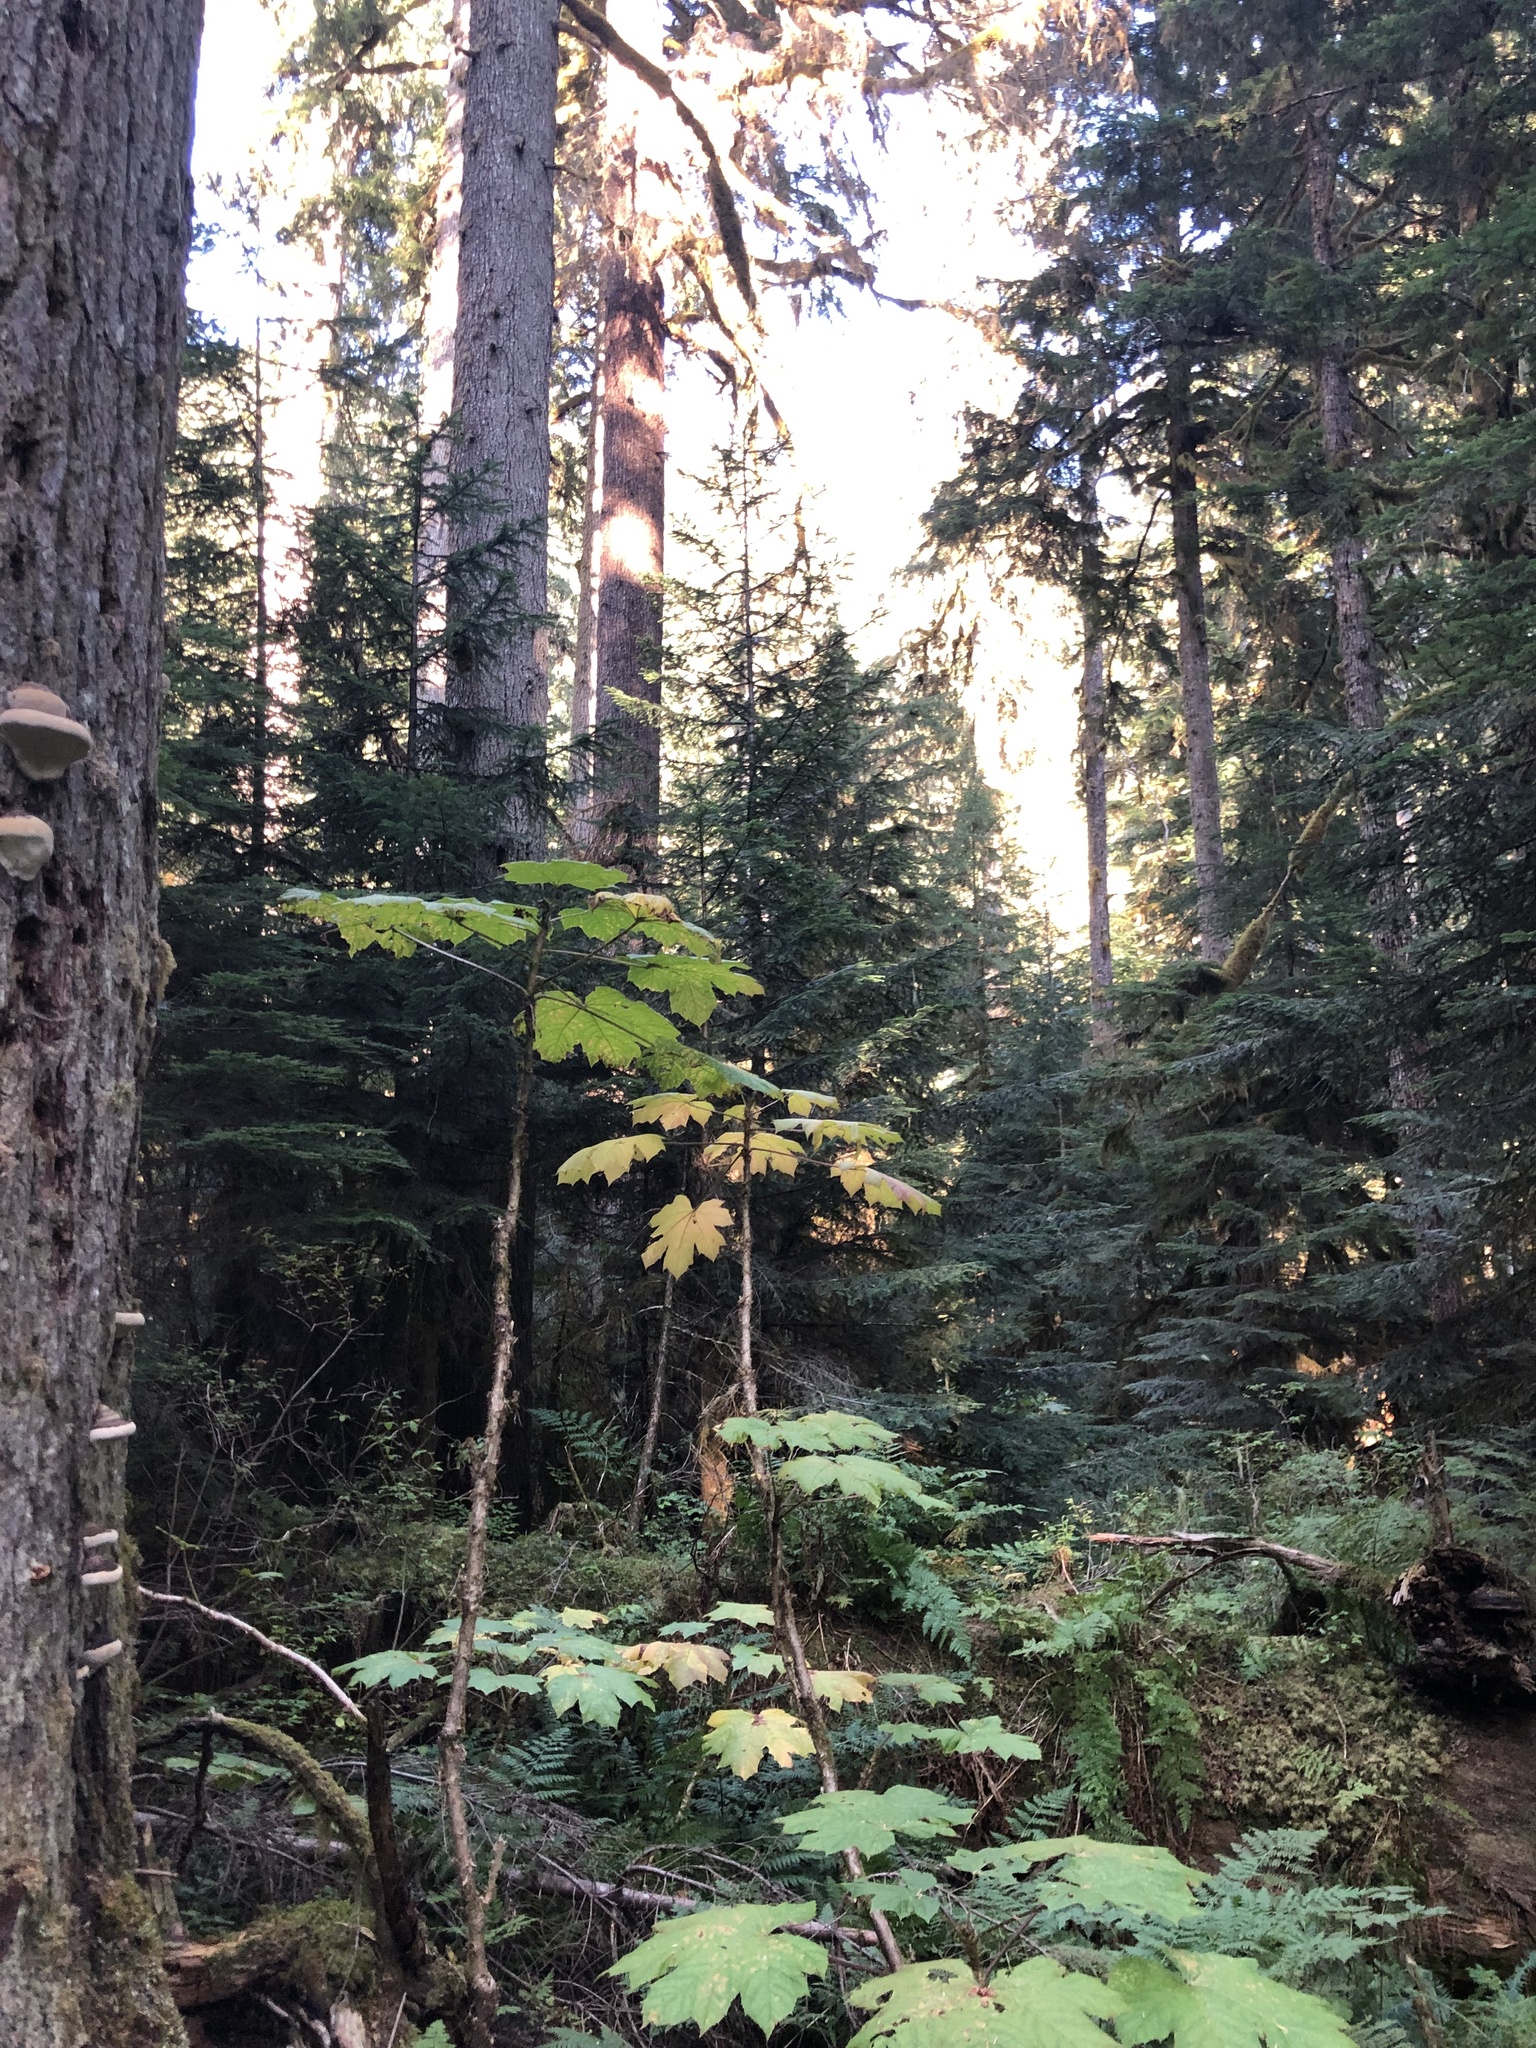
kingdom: Plantae
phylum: Tracheophyta
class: Magnoliopsida
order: Apiales
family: Araliaceae
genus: Oplopanax
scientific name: Oplopanax horridus
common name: Devil's walking-stick
